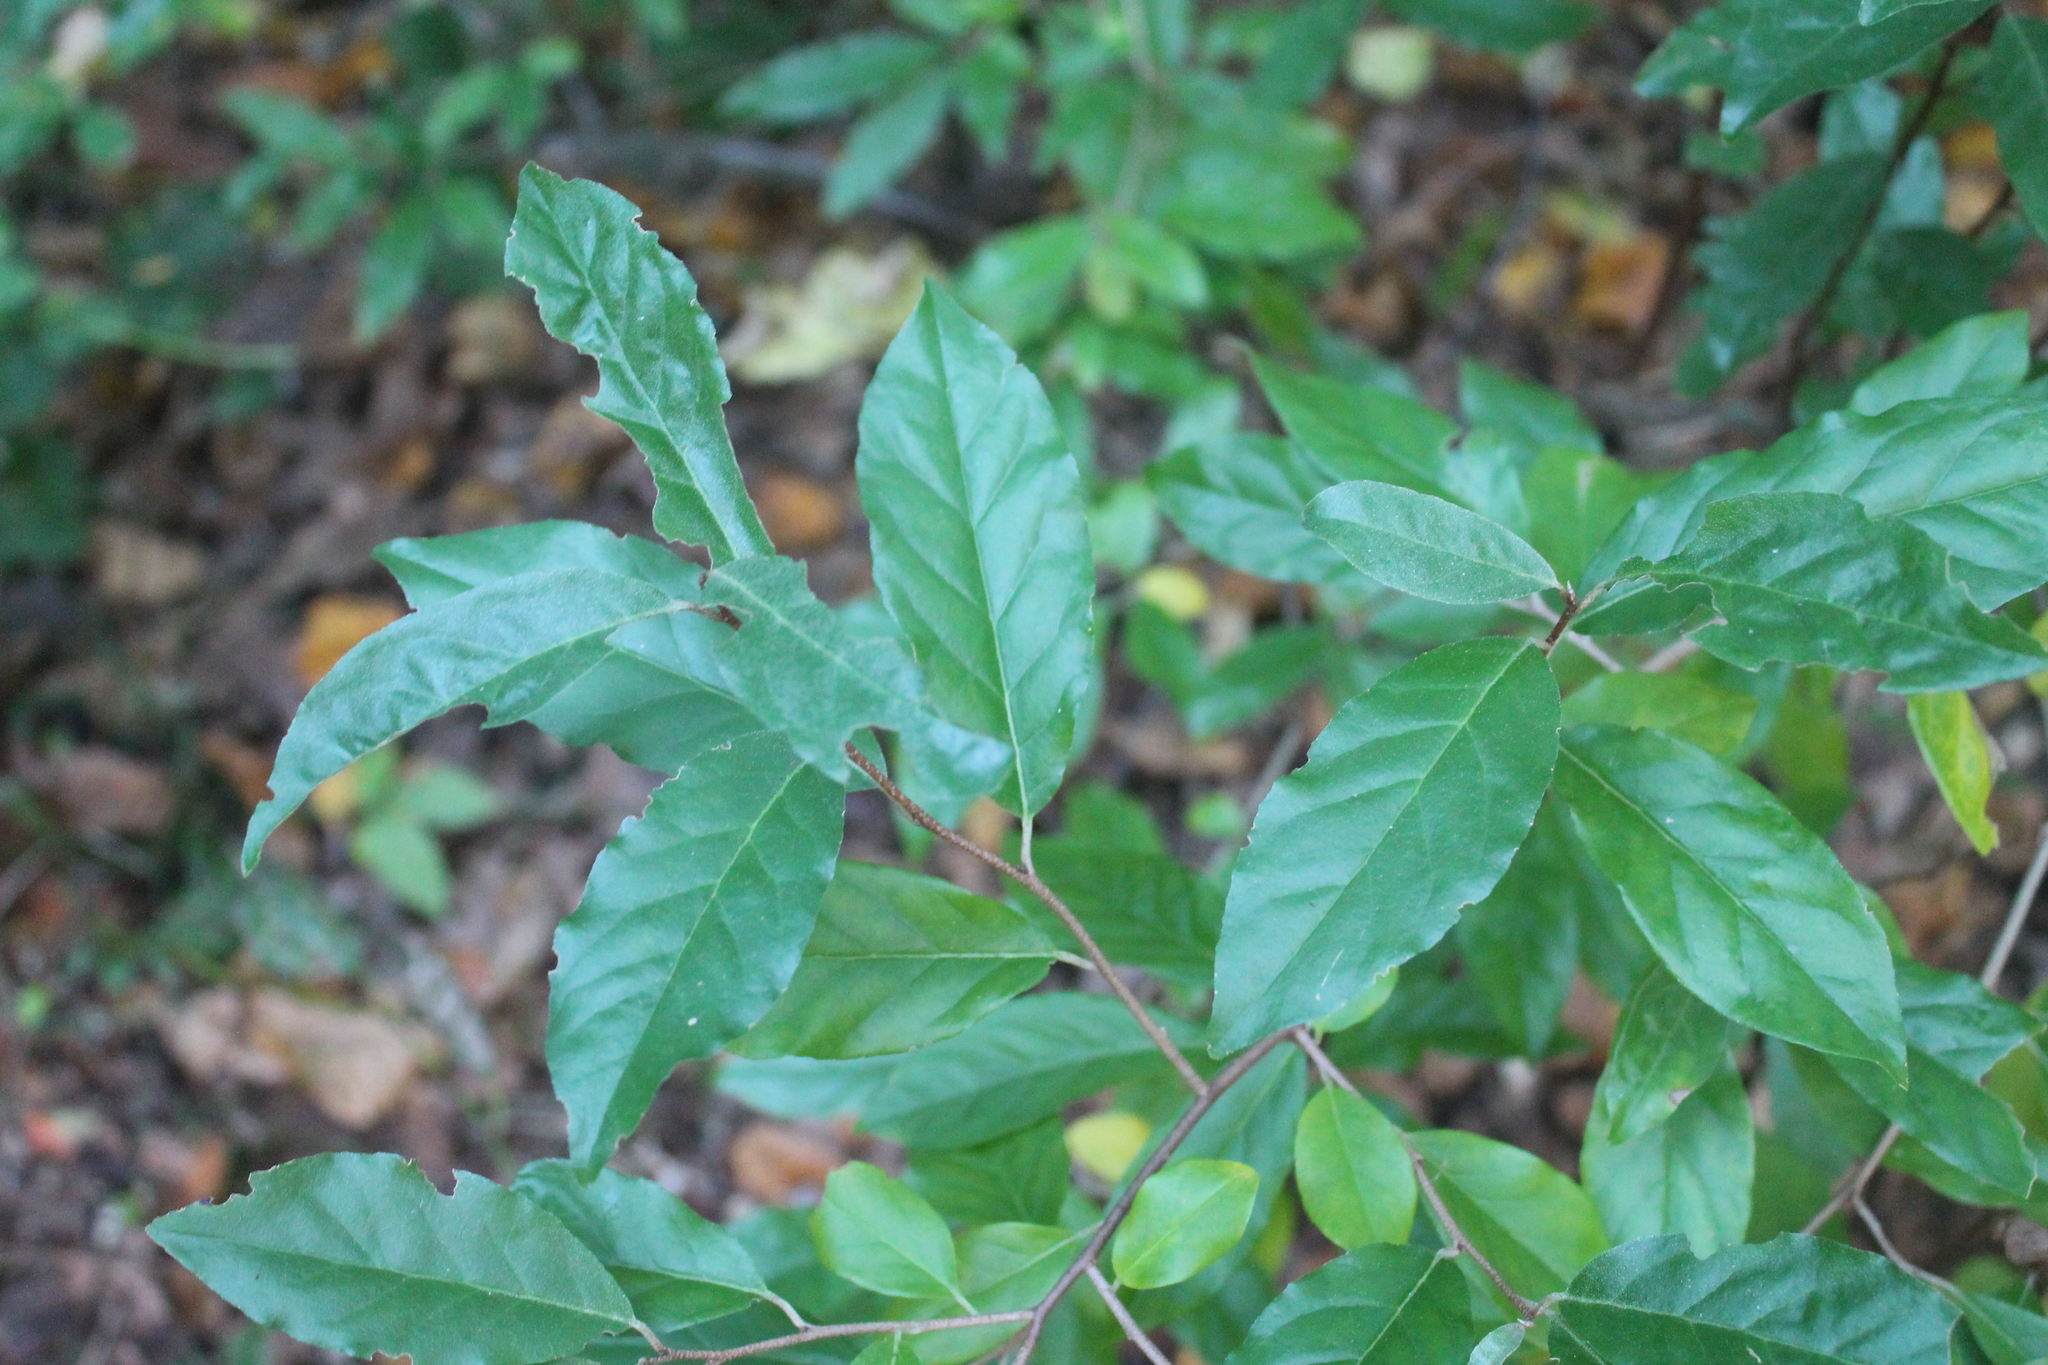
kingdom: Plantae
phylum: Tracheophyta
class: Magnoliopsida
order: Rosales
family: Elaeagnaceae
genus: Elaeagnus
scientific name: Elaeagnus umbellata
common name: Autumn olive
